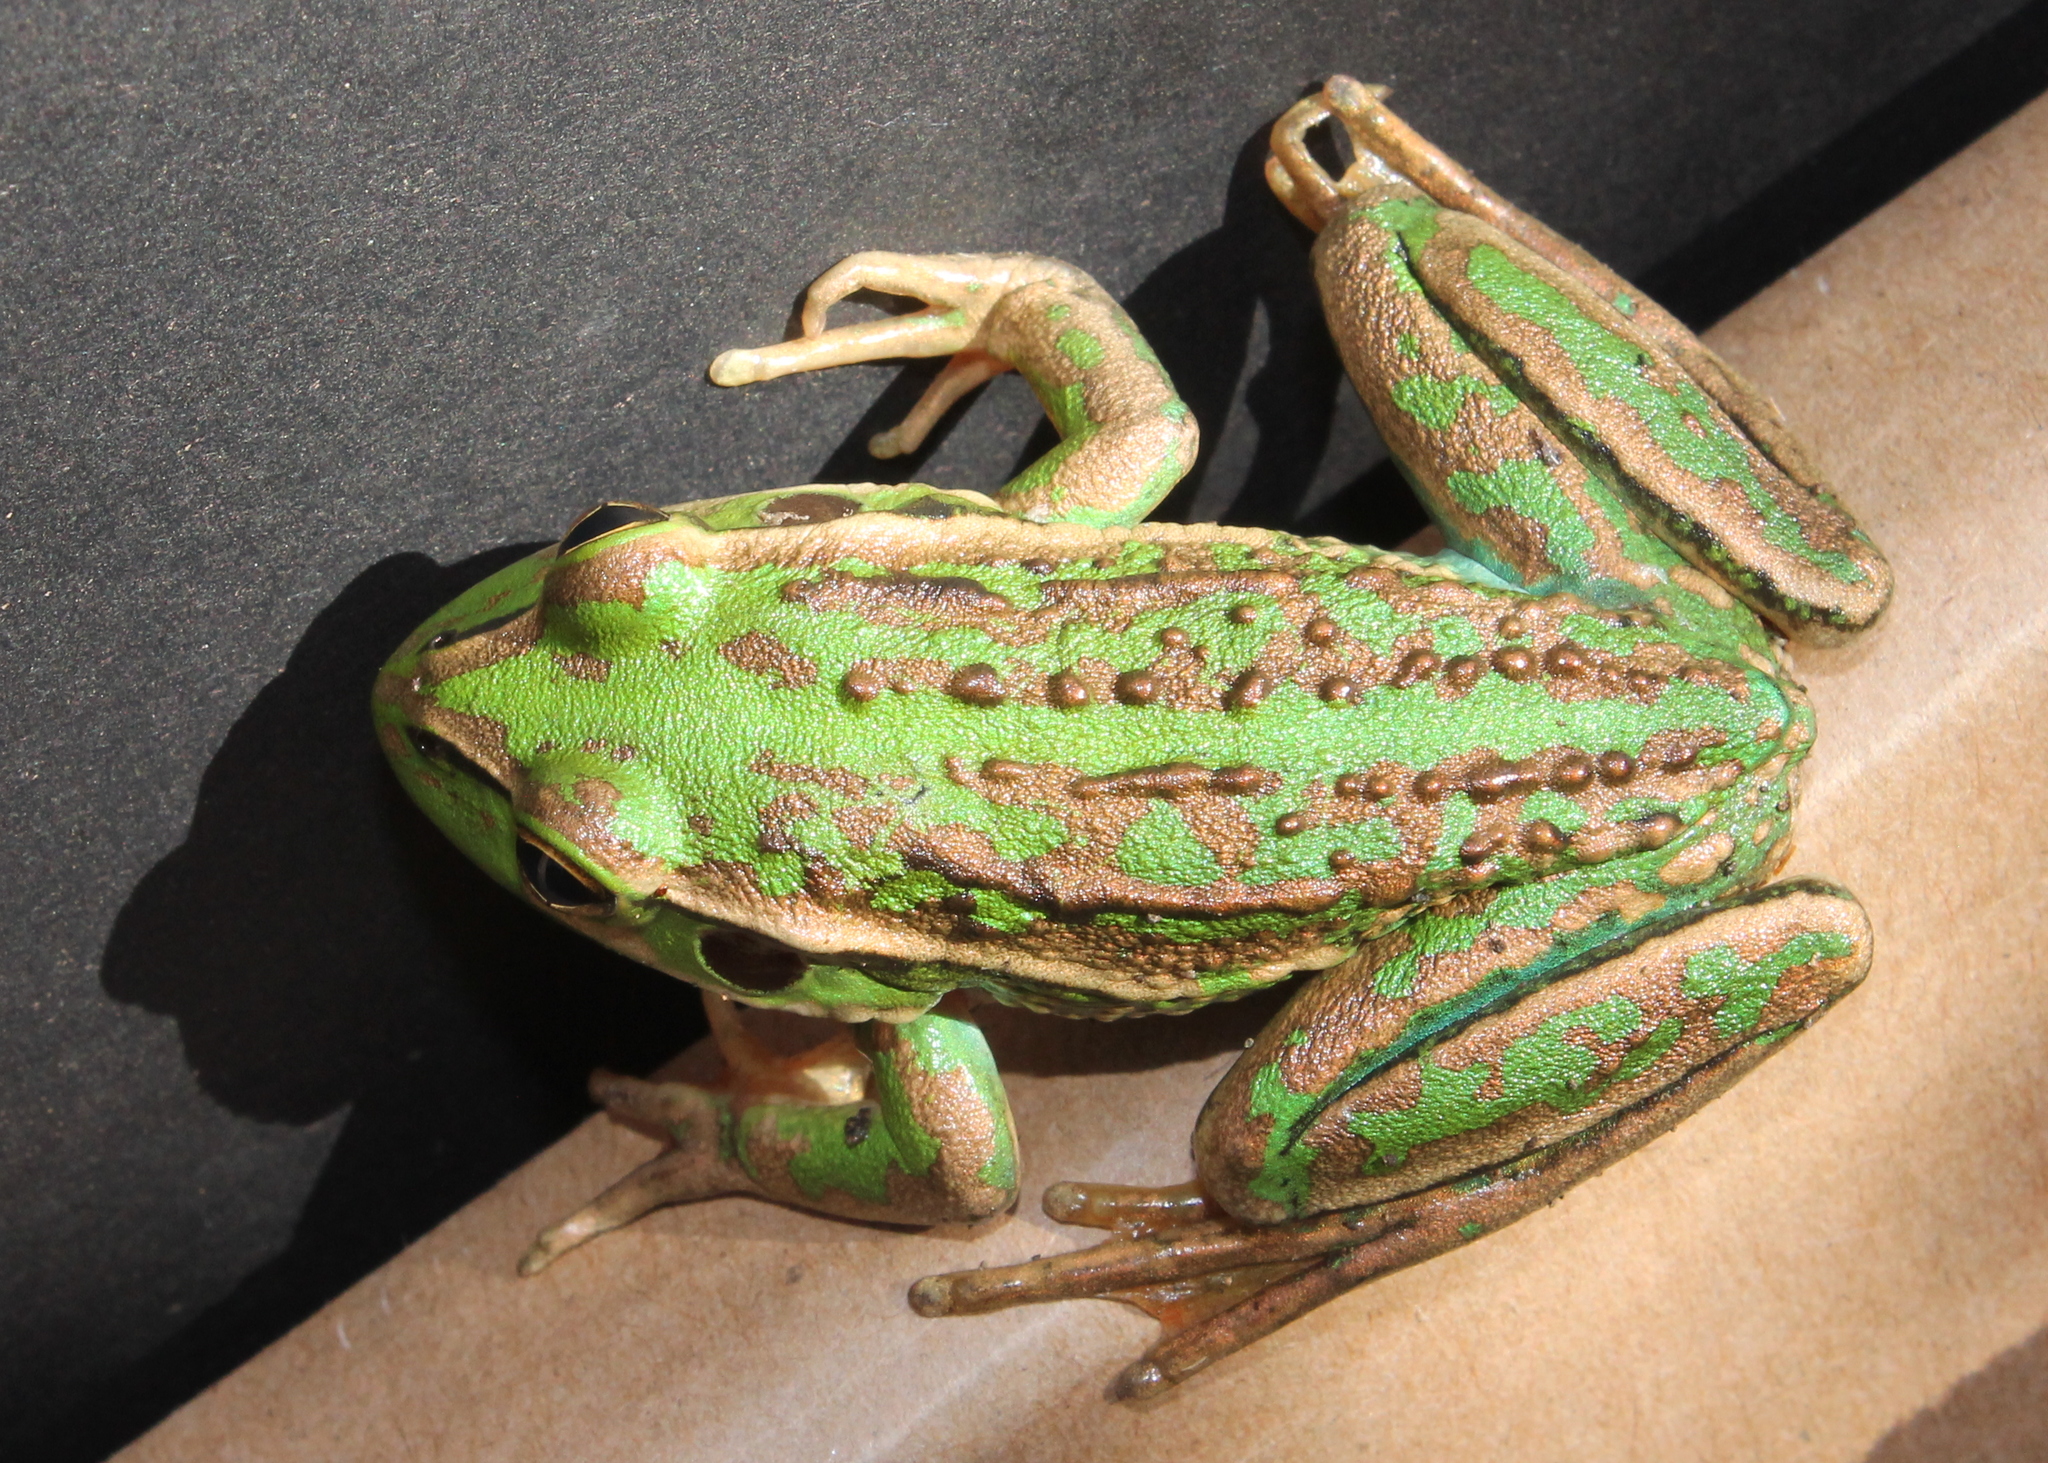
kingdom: Animalia
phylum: Chordata
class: Amphibia
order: Anura
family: Pelodryadidae
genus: Ranoidea
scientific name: Ranoidea raniformis
